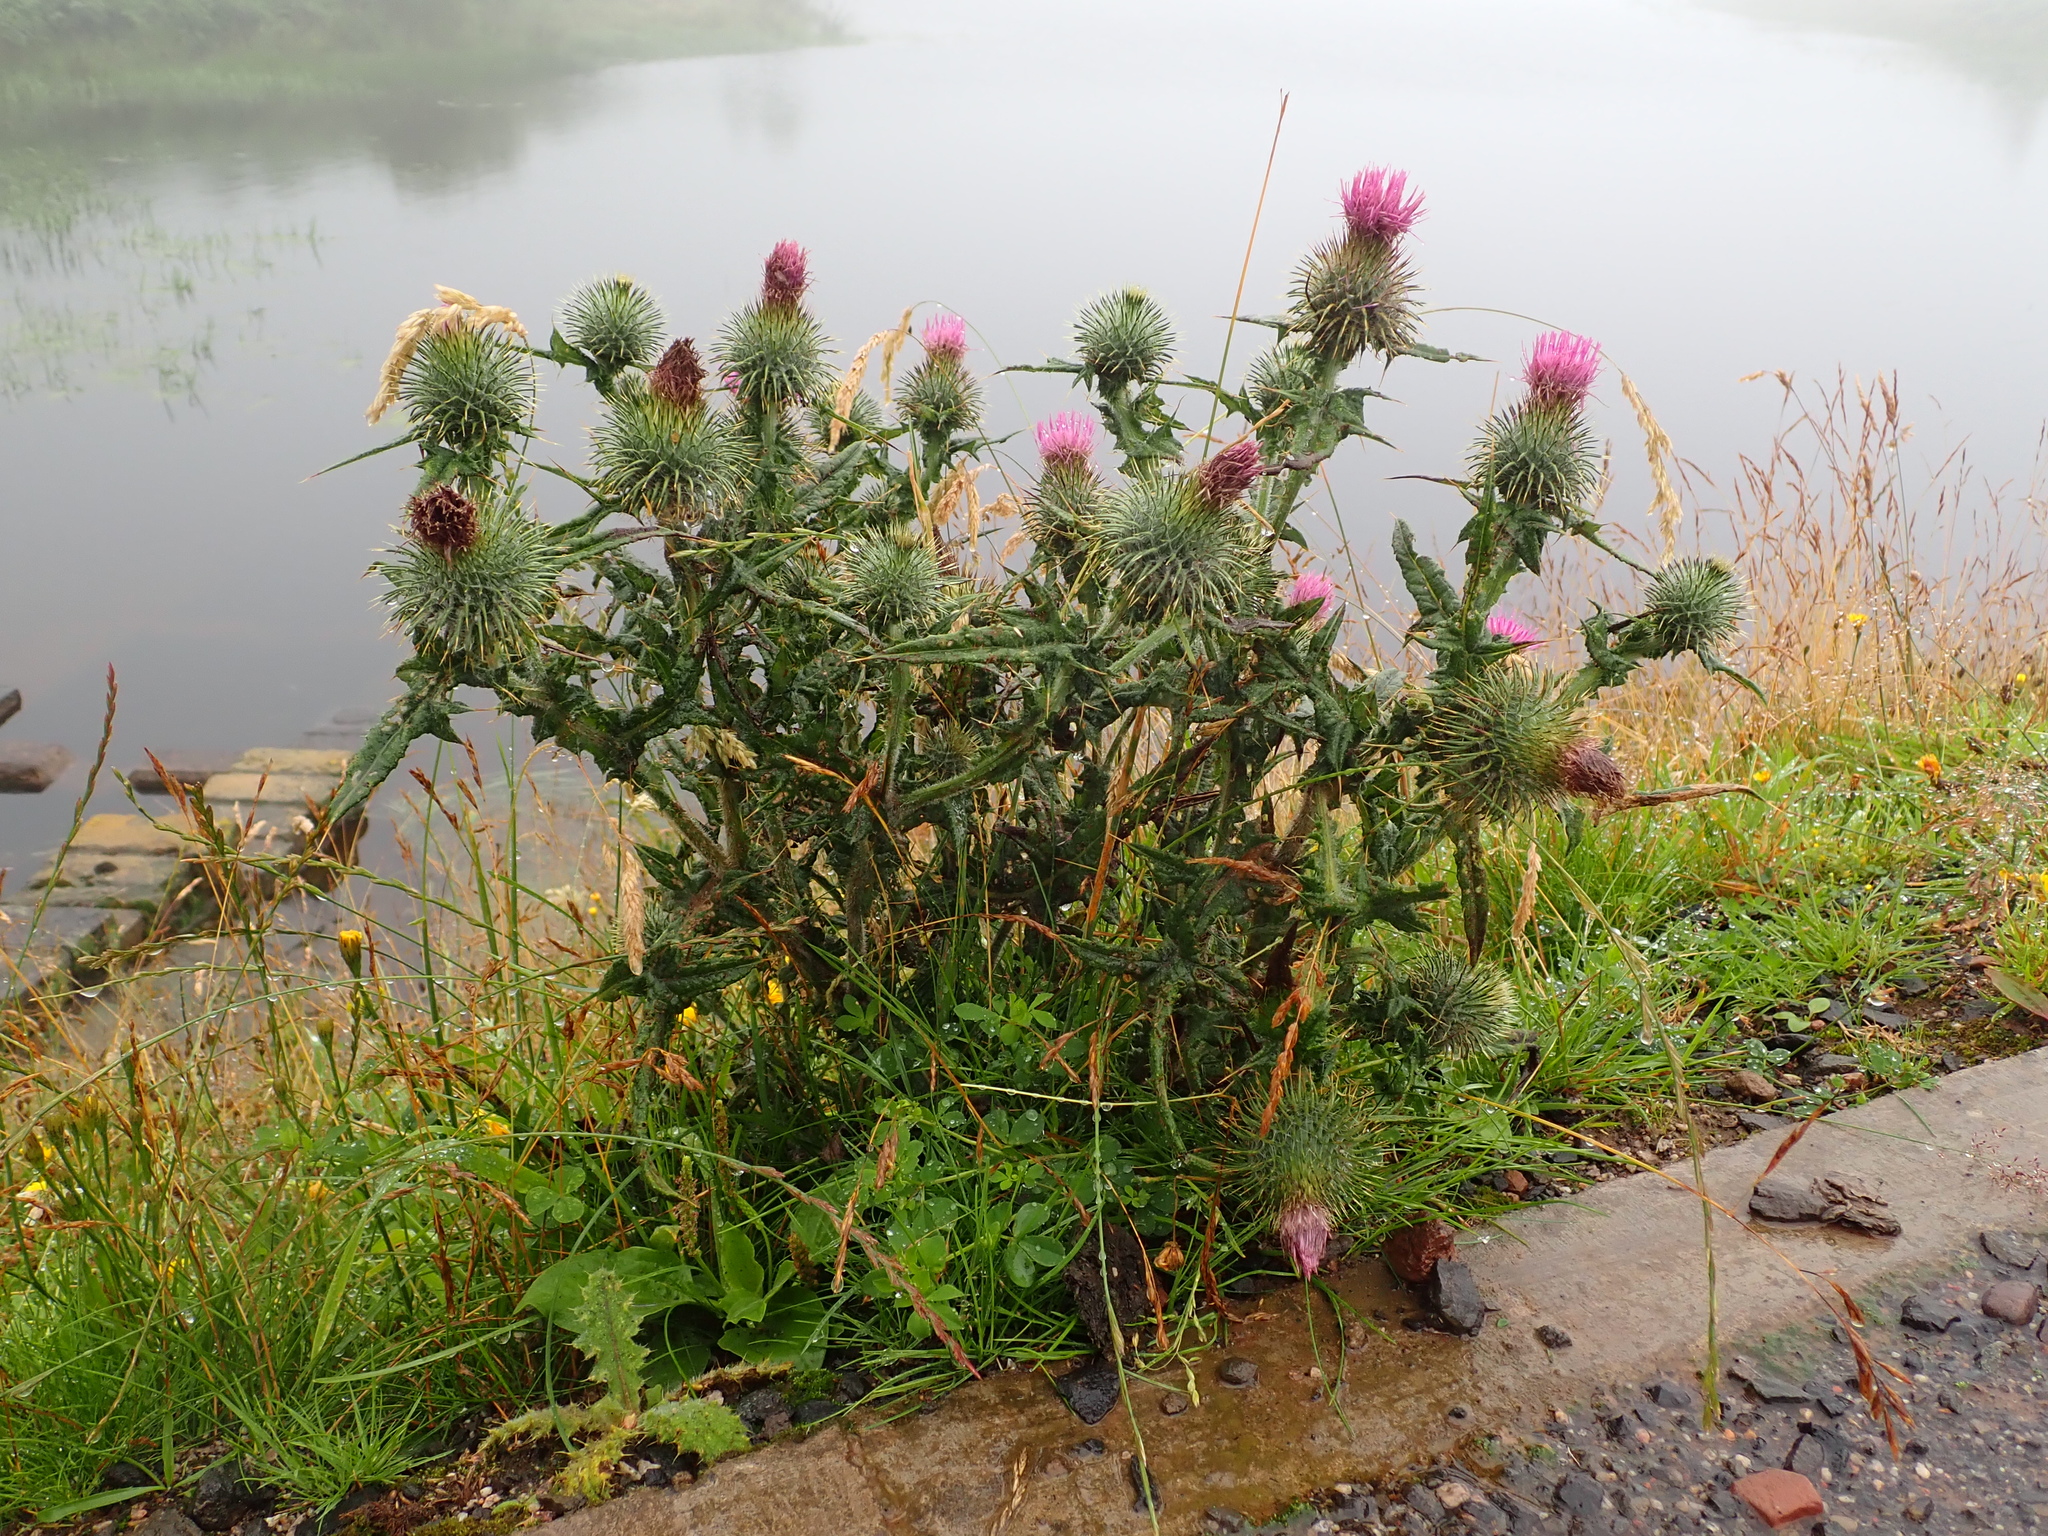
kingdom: Plantae
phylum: Tracheophyta
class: Magnoliopsida
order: Asterales
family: Asteraceae
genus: Cirsium
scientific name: Cirsium vulgare
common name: Bull thistle
